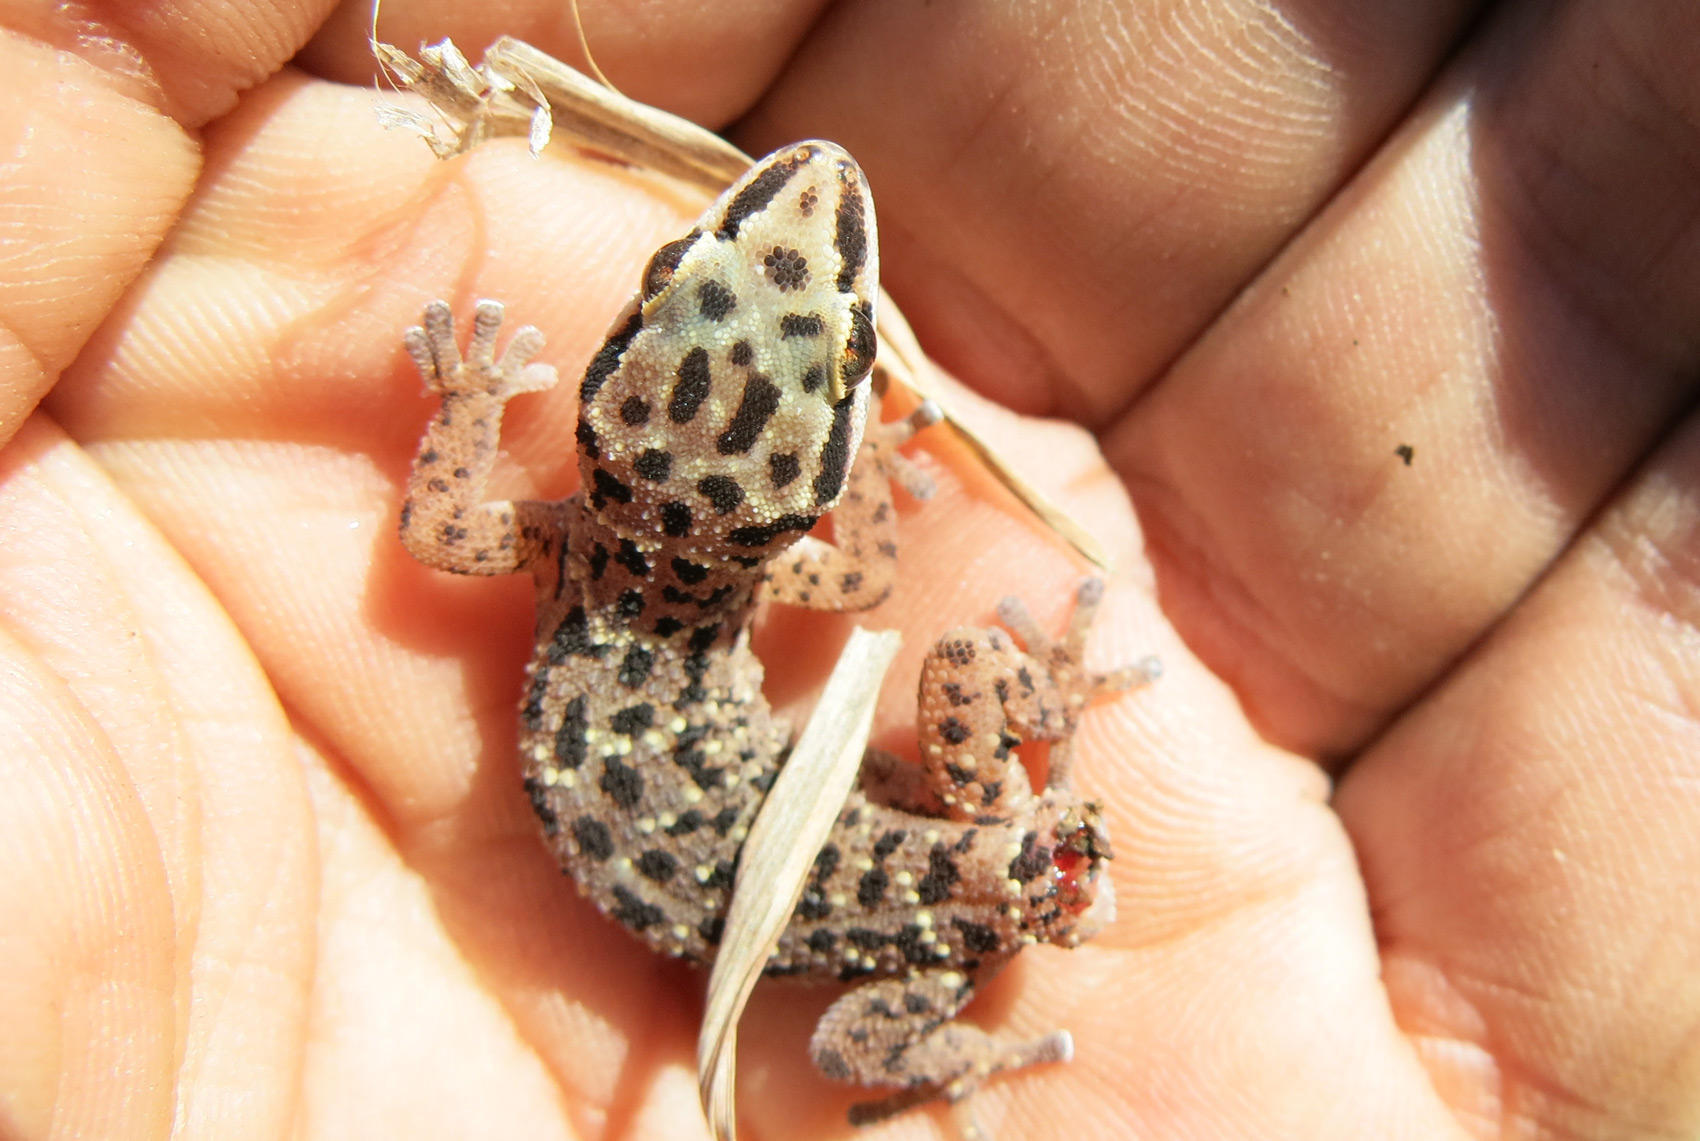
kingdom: Animalia
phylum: Chordata
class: Squamata
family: Gekkonidae
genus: Pachydactylus
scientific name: Pachydactylus affinis
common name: Transvaal gecko
